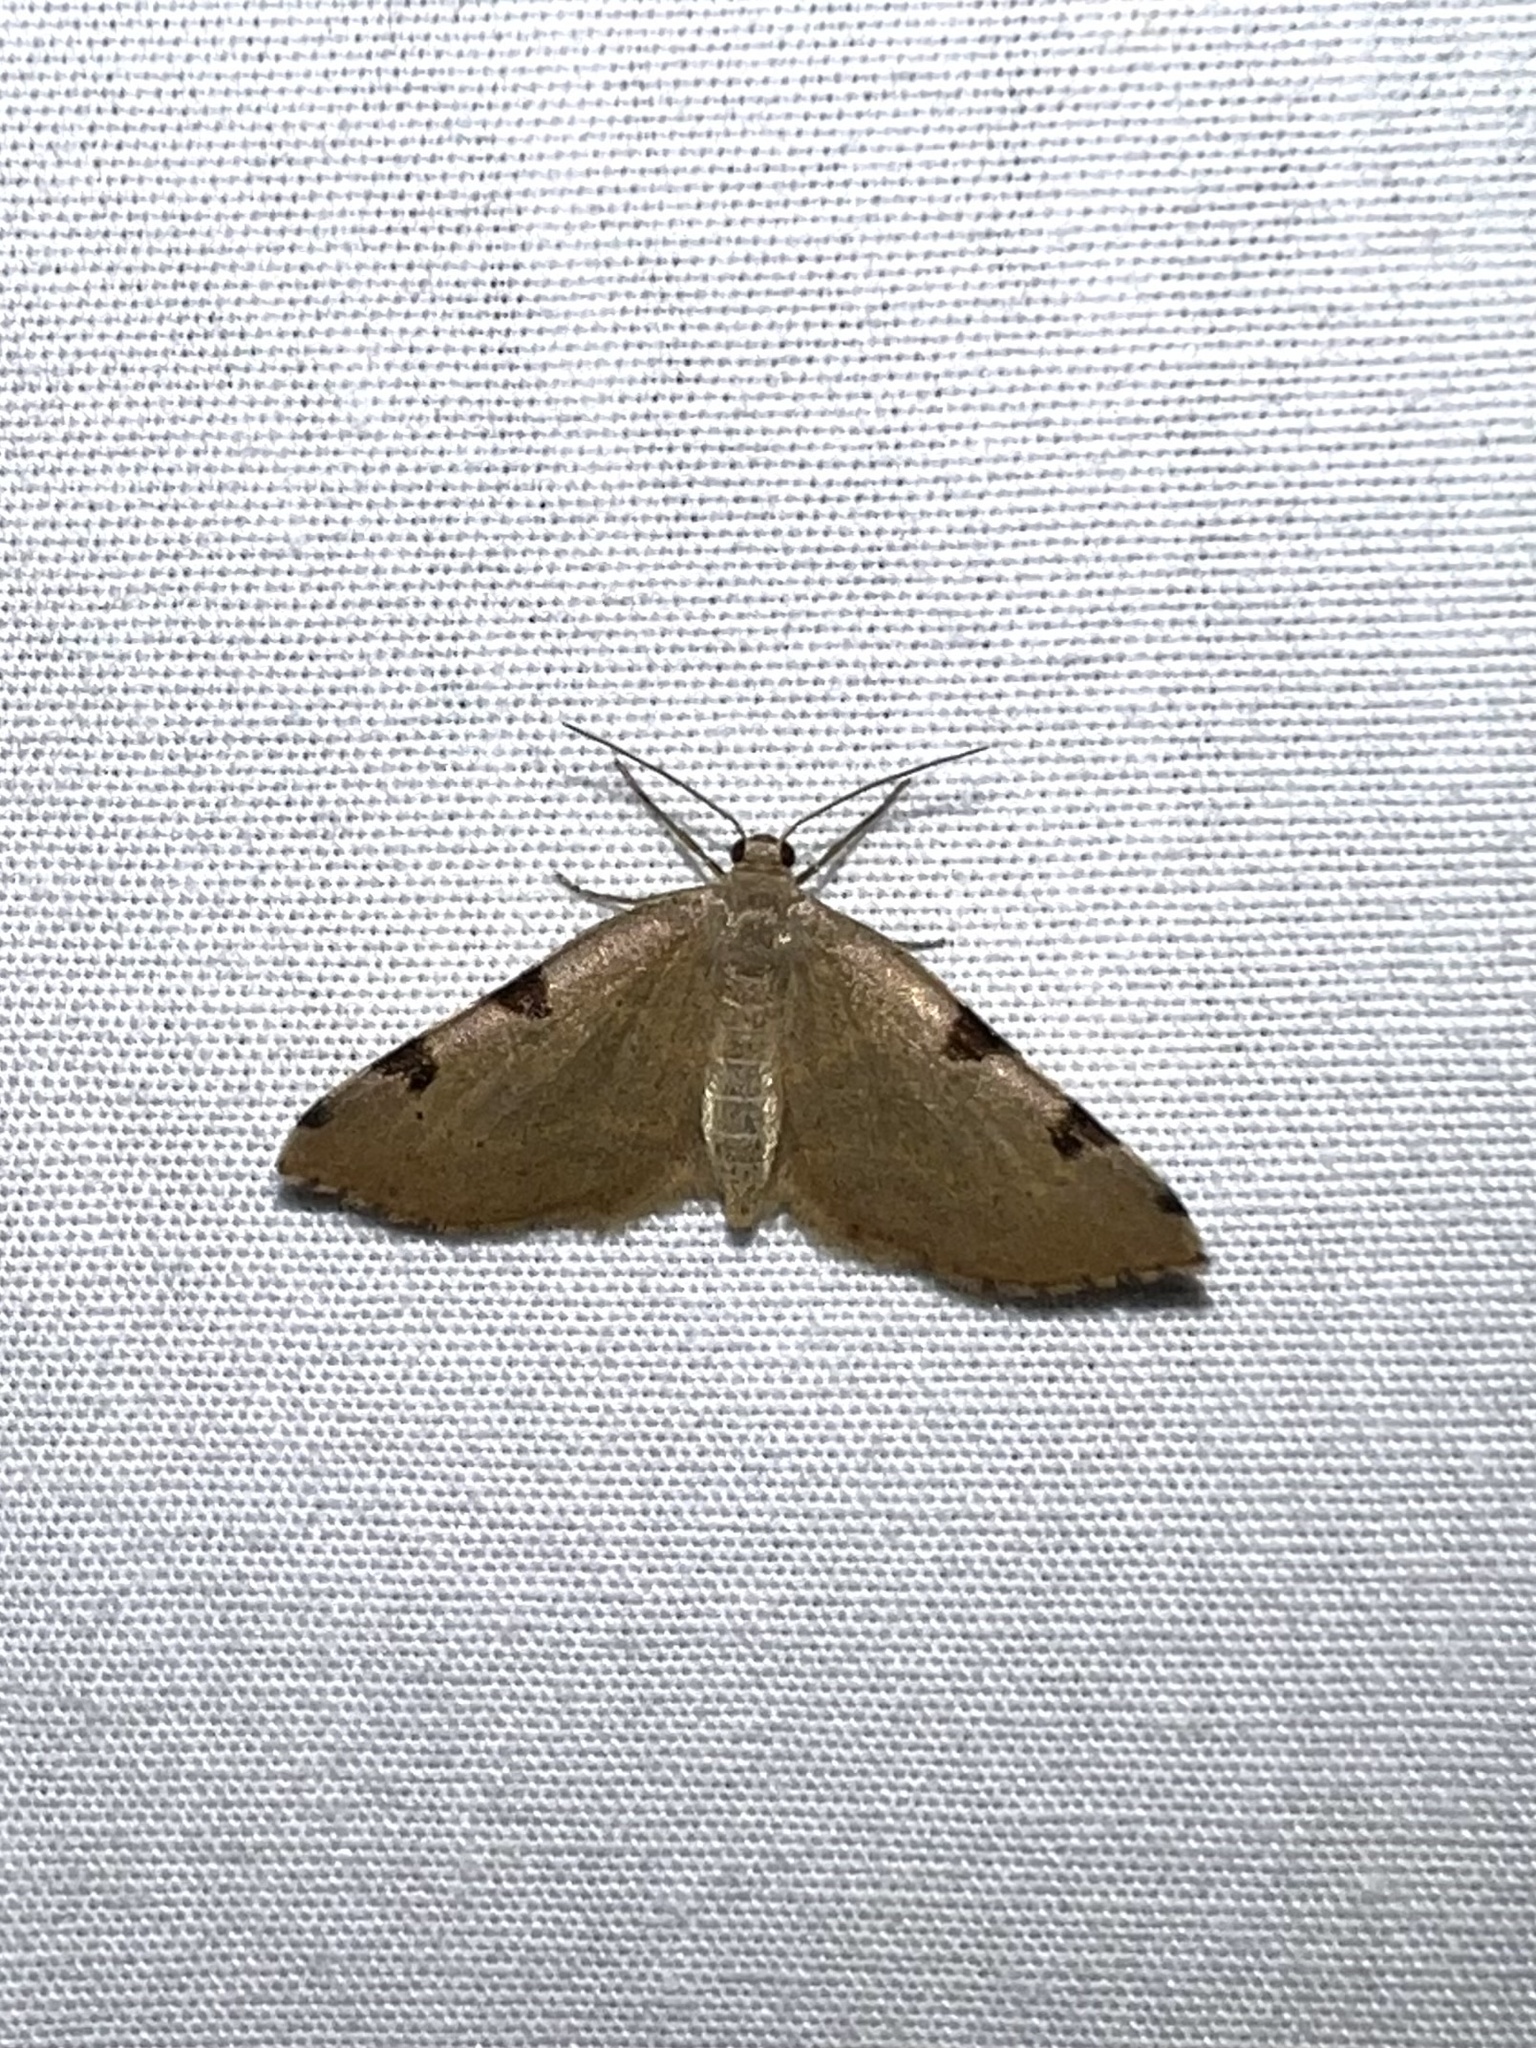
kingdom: Animalia
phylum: Arthropoda
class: Insecta
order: Lepidoptera
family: Geometridae
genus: Heterophleps
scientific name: Heterophleps triguttaria
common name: Three-spotted fillip
